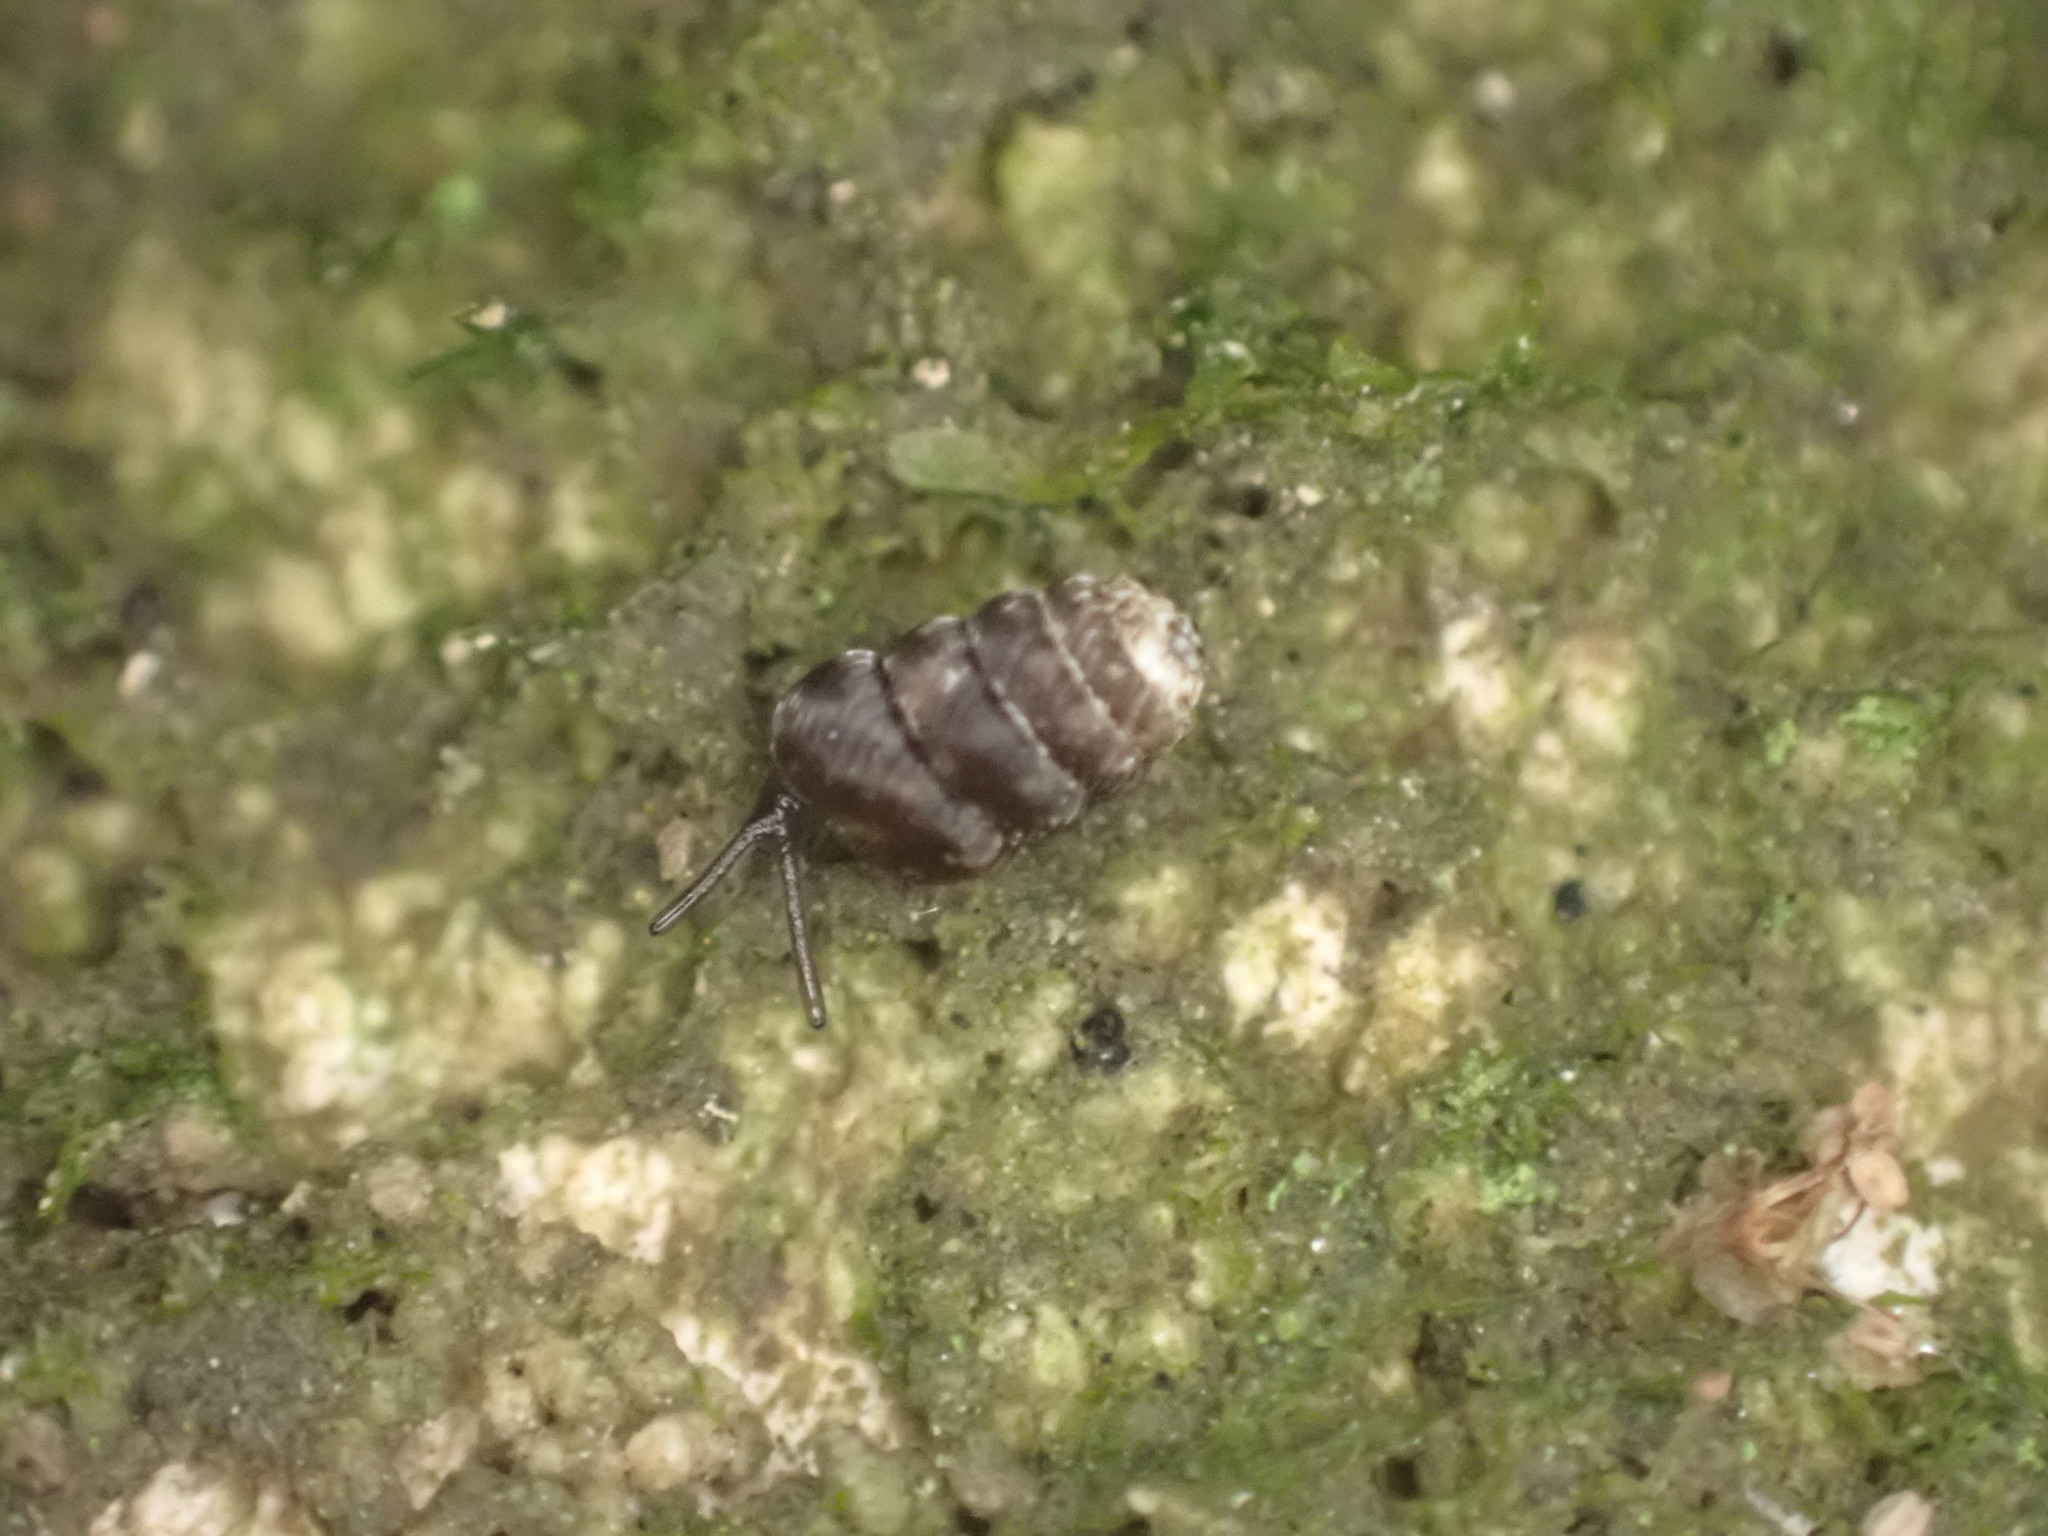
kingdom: Animalia
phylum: Mollusca
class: Gastropoda
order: Stylommatophora
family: Charopidae
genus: Phenacharopa
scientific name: Phenacharopa novoseelandica
